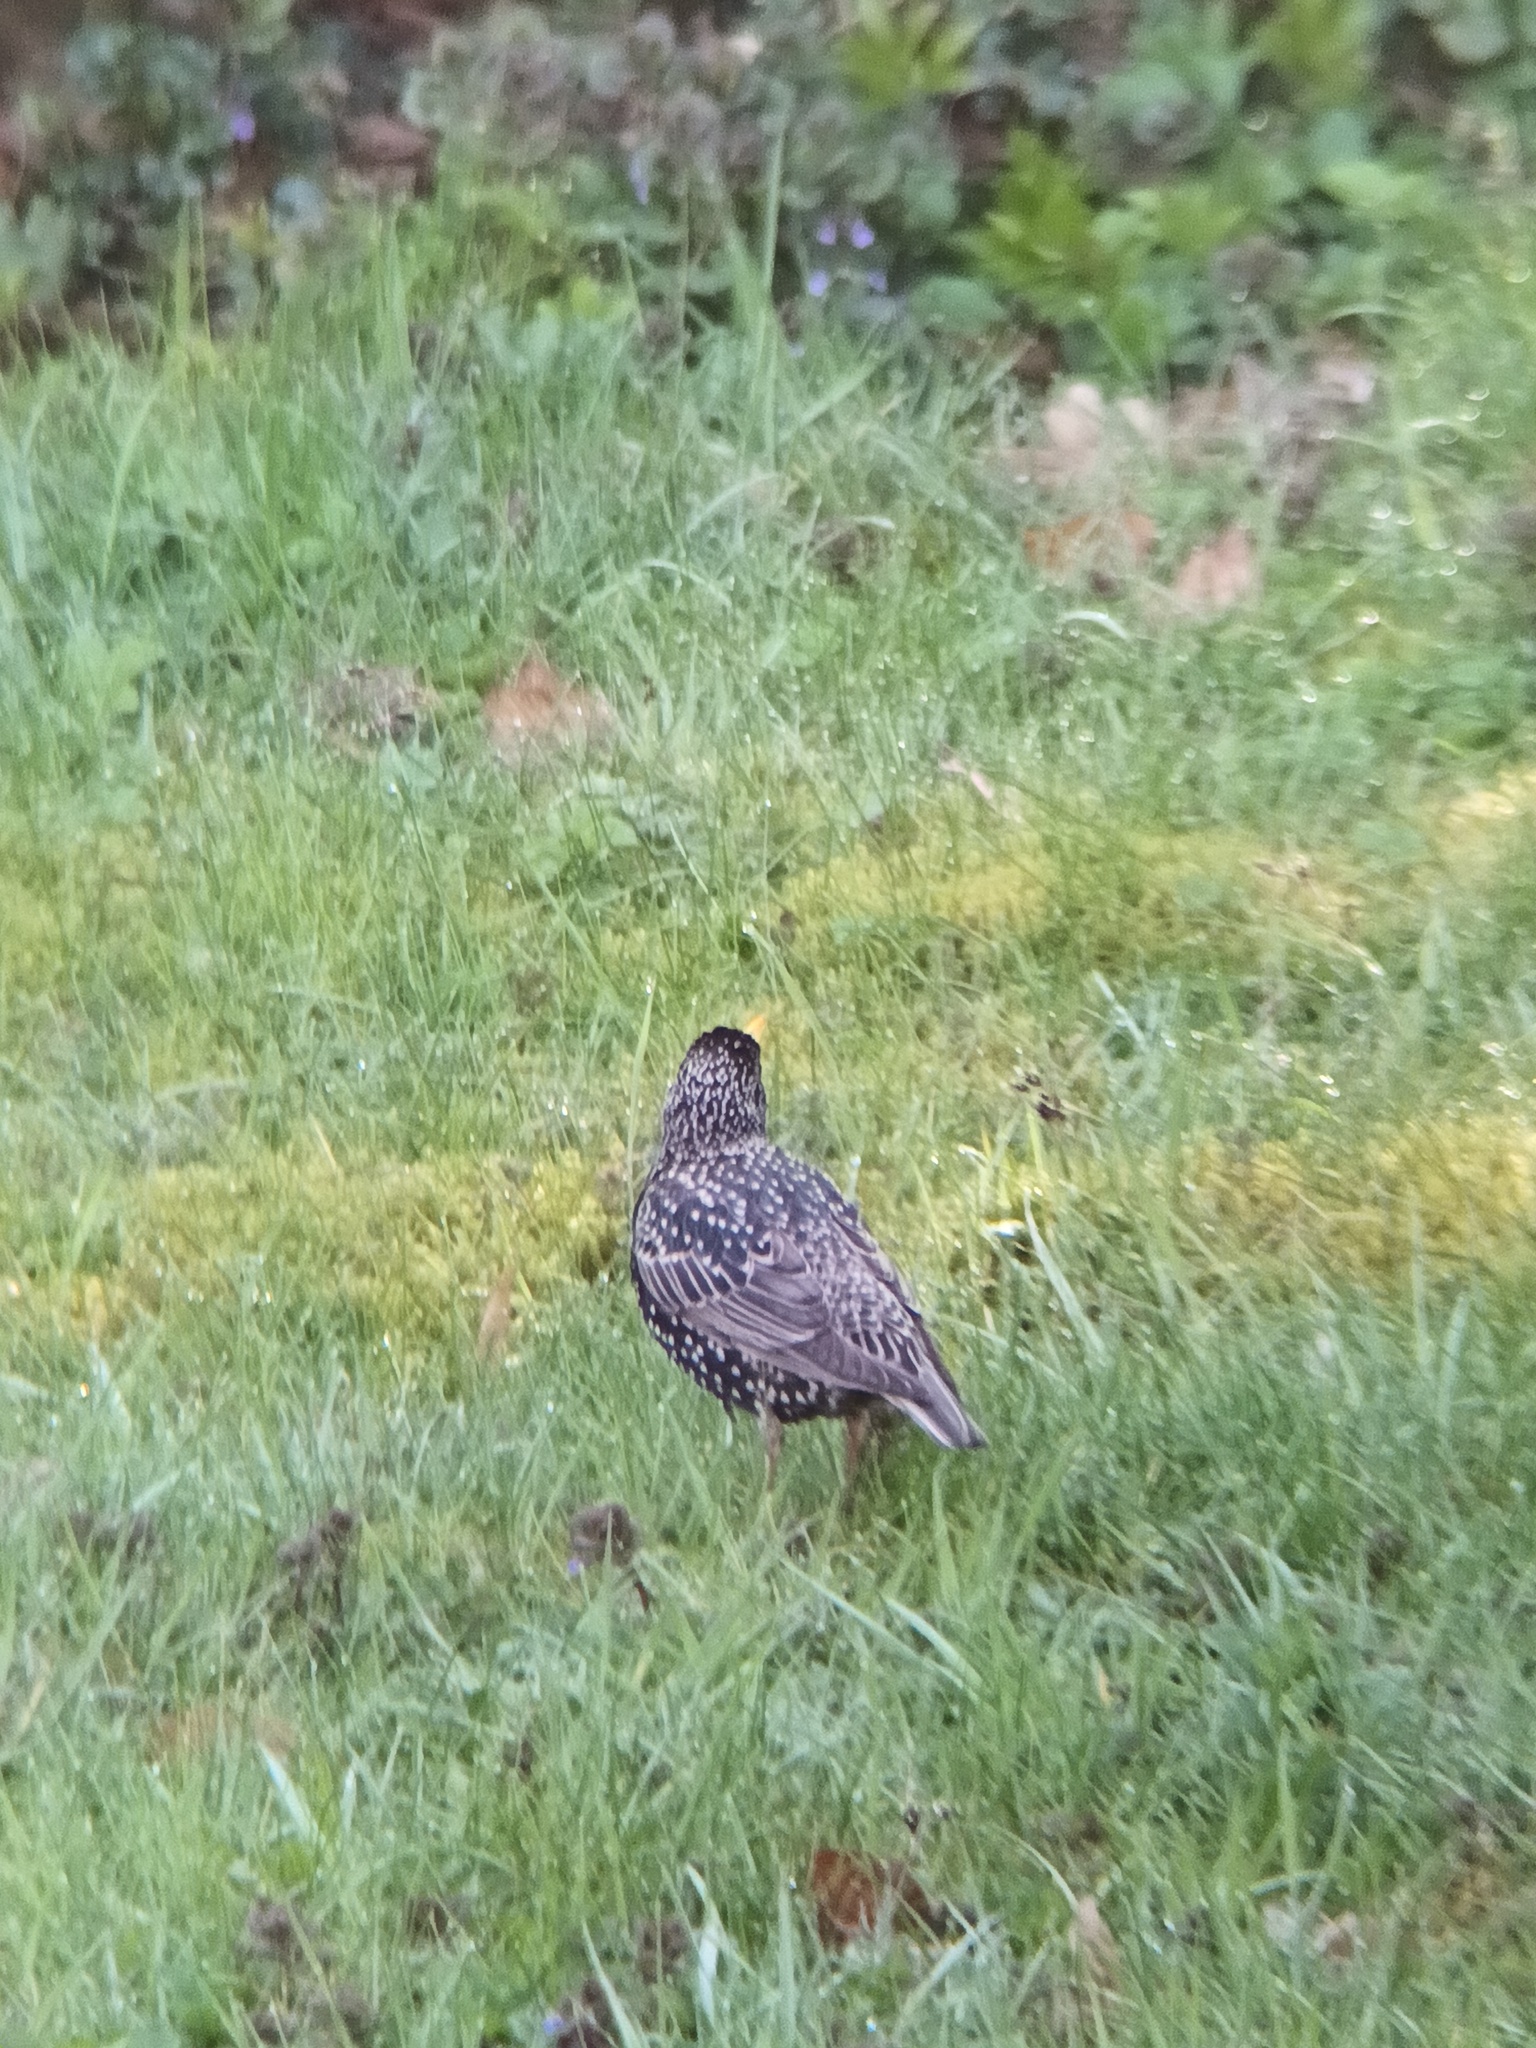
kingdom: Animalia
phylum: Chordata
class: Aves
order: Passeriformes
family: Sturnidae
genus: Sturnus
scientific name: Sturnus vulgaris
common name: Common starling
